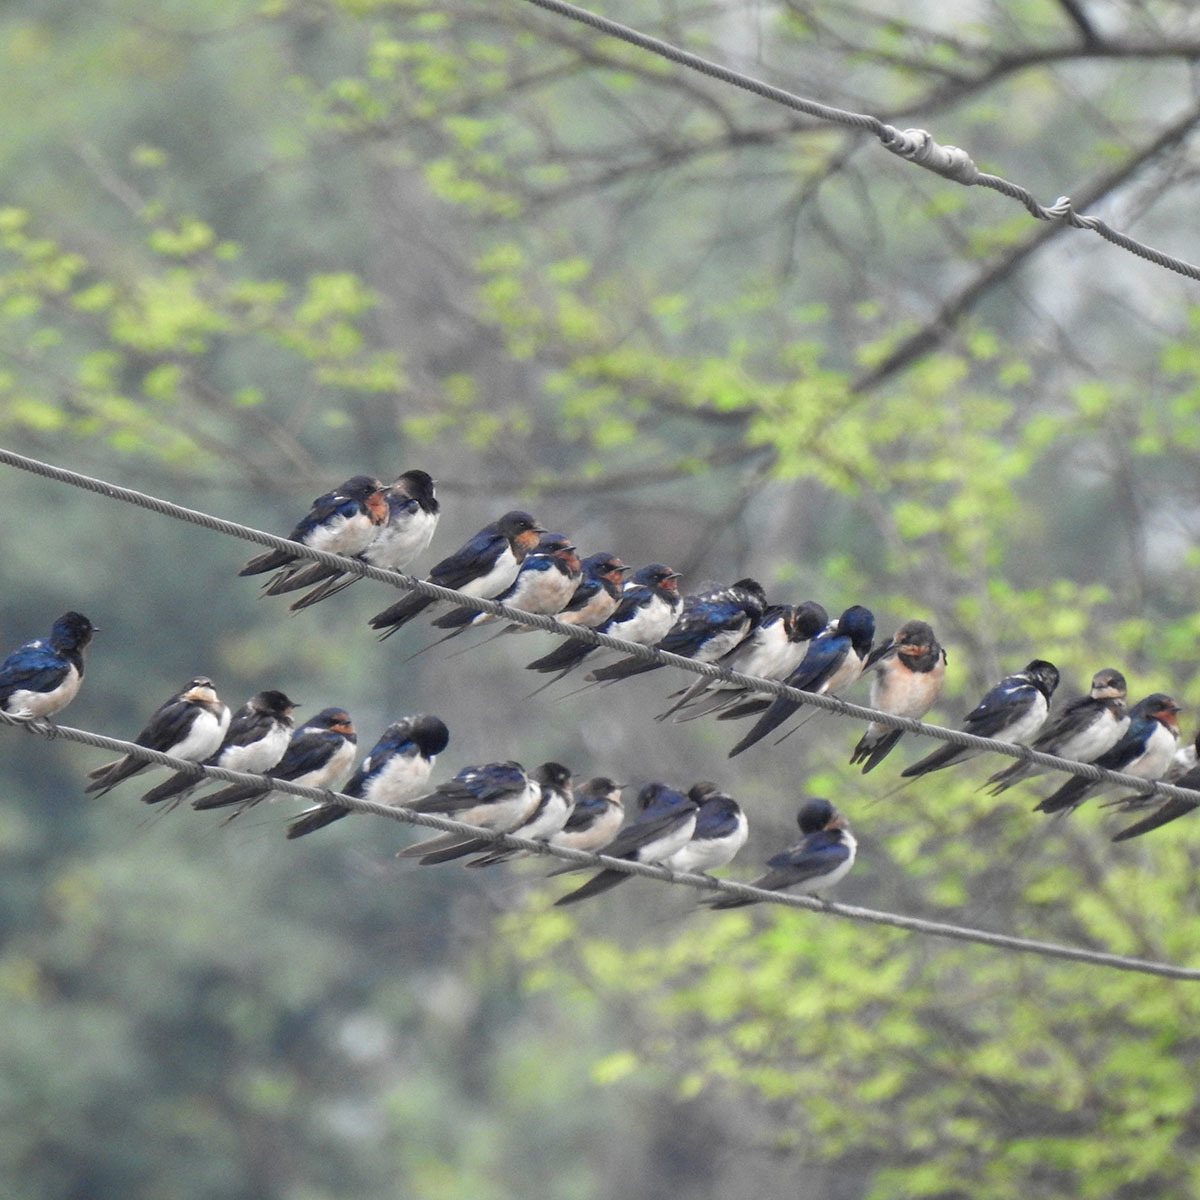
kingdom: Animalia
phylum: Chordata
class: Aves
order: Passeriformes
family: Hirundinidae
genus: Hirundo
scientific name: Hirundo rustica
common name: Barn swallow
